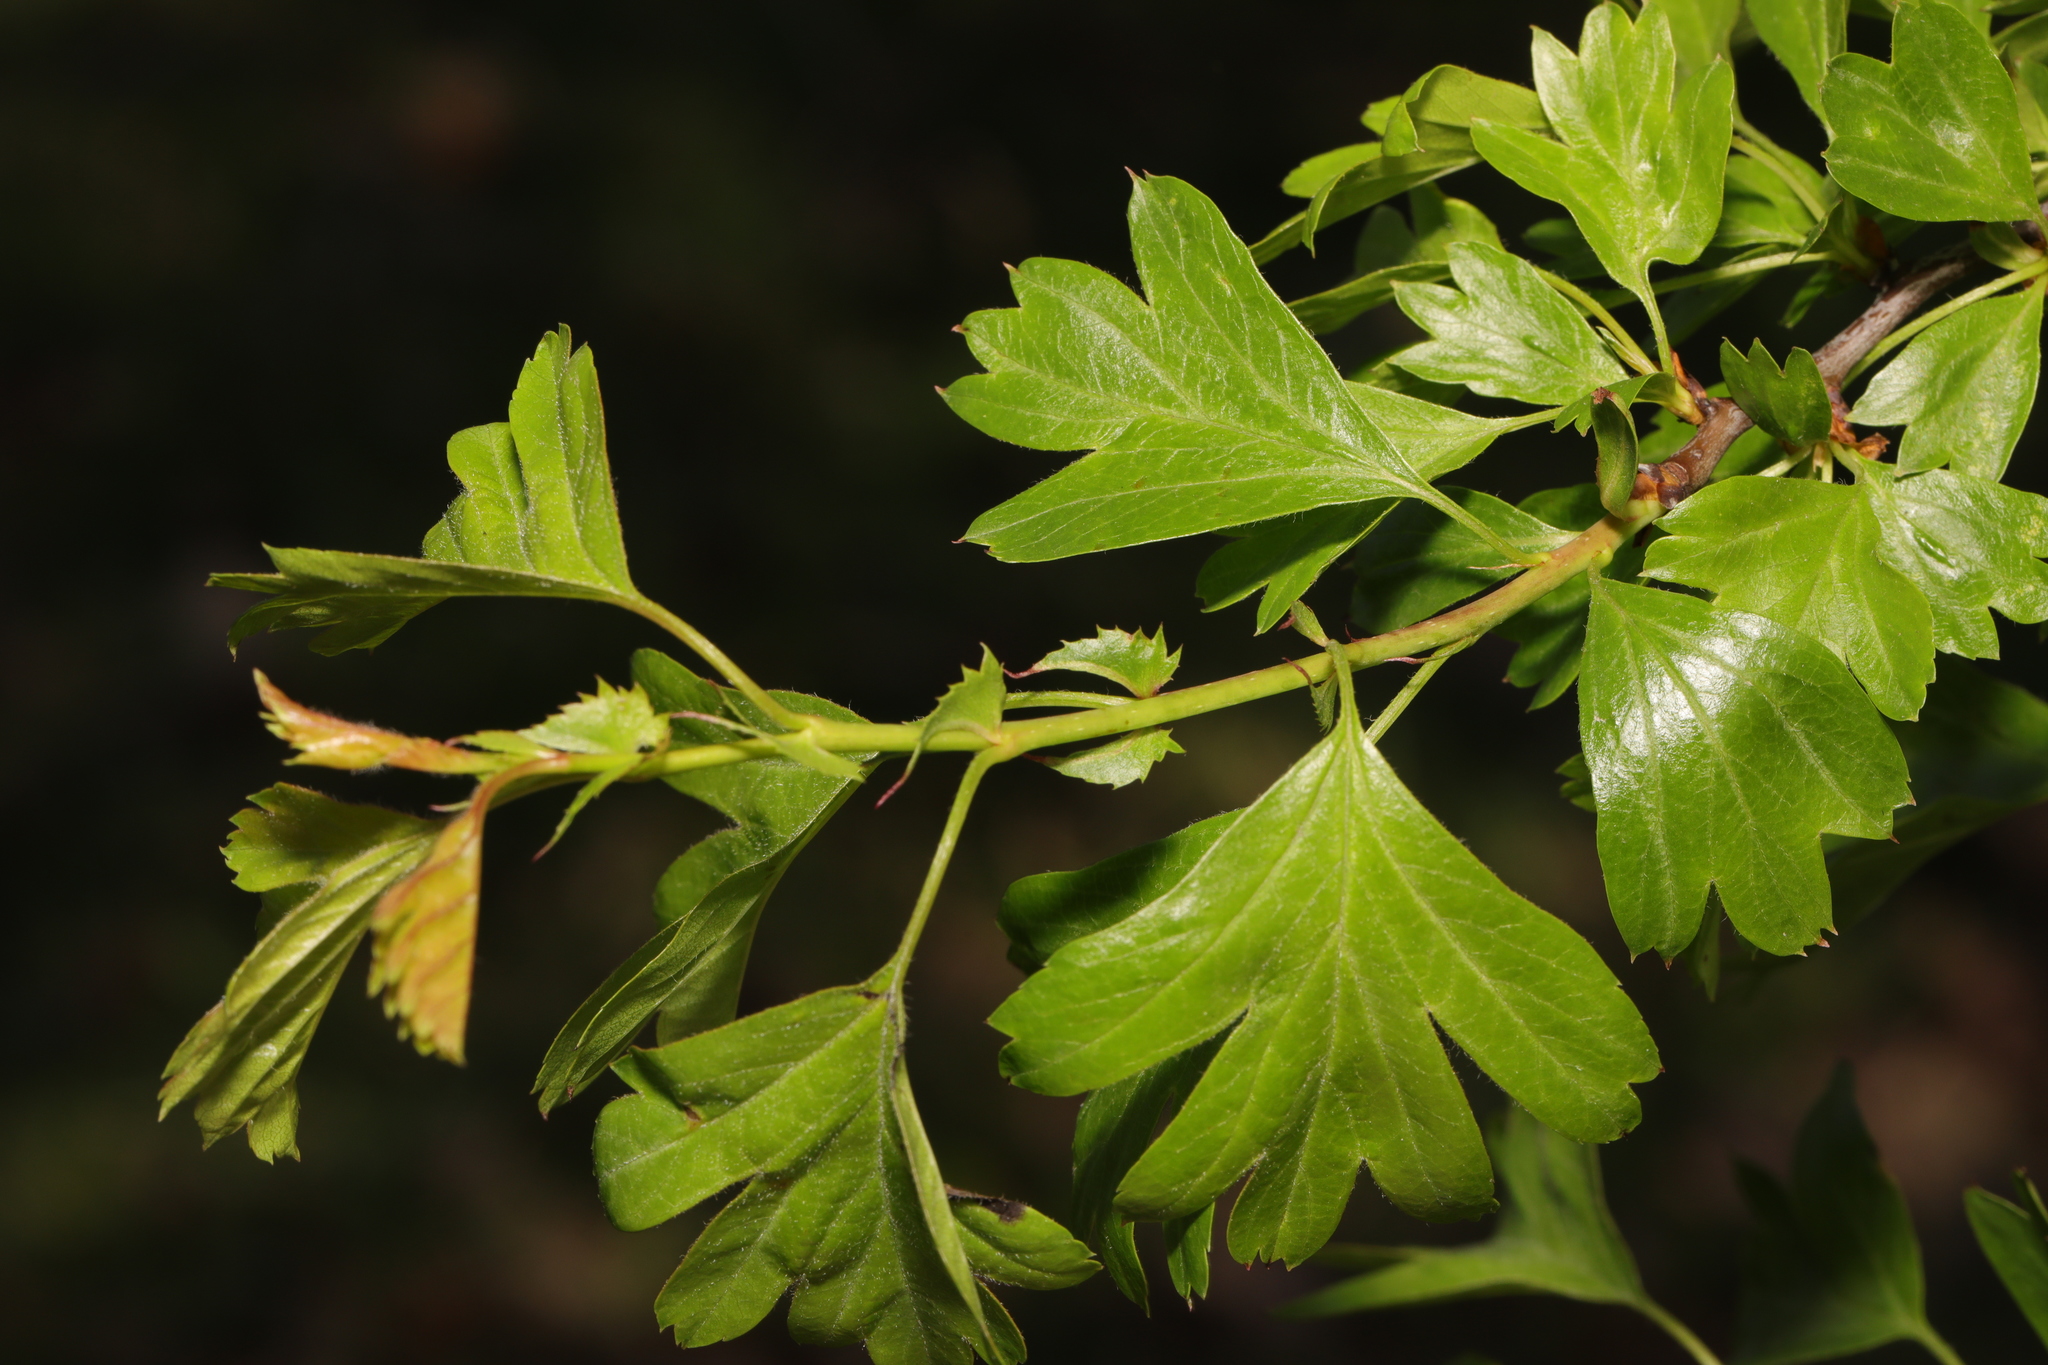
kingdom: Plantae
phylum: Tracheophyta
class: Magnoliopsida
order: Rosales
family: Rosaceae
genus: Crataegus
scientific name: Crataegus monogyna
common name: Hawthorn
